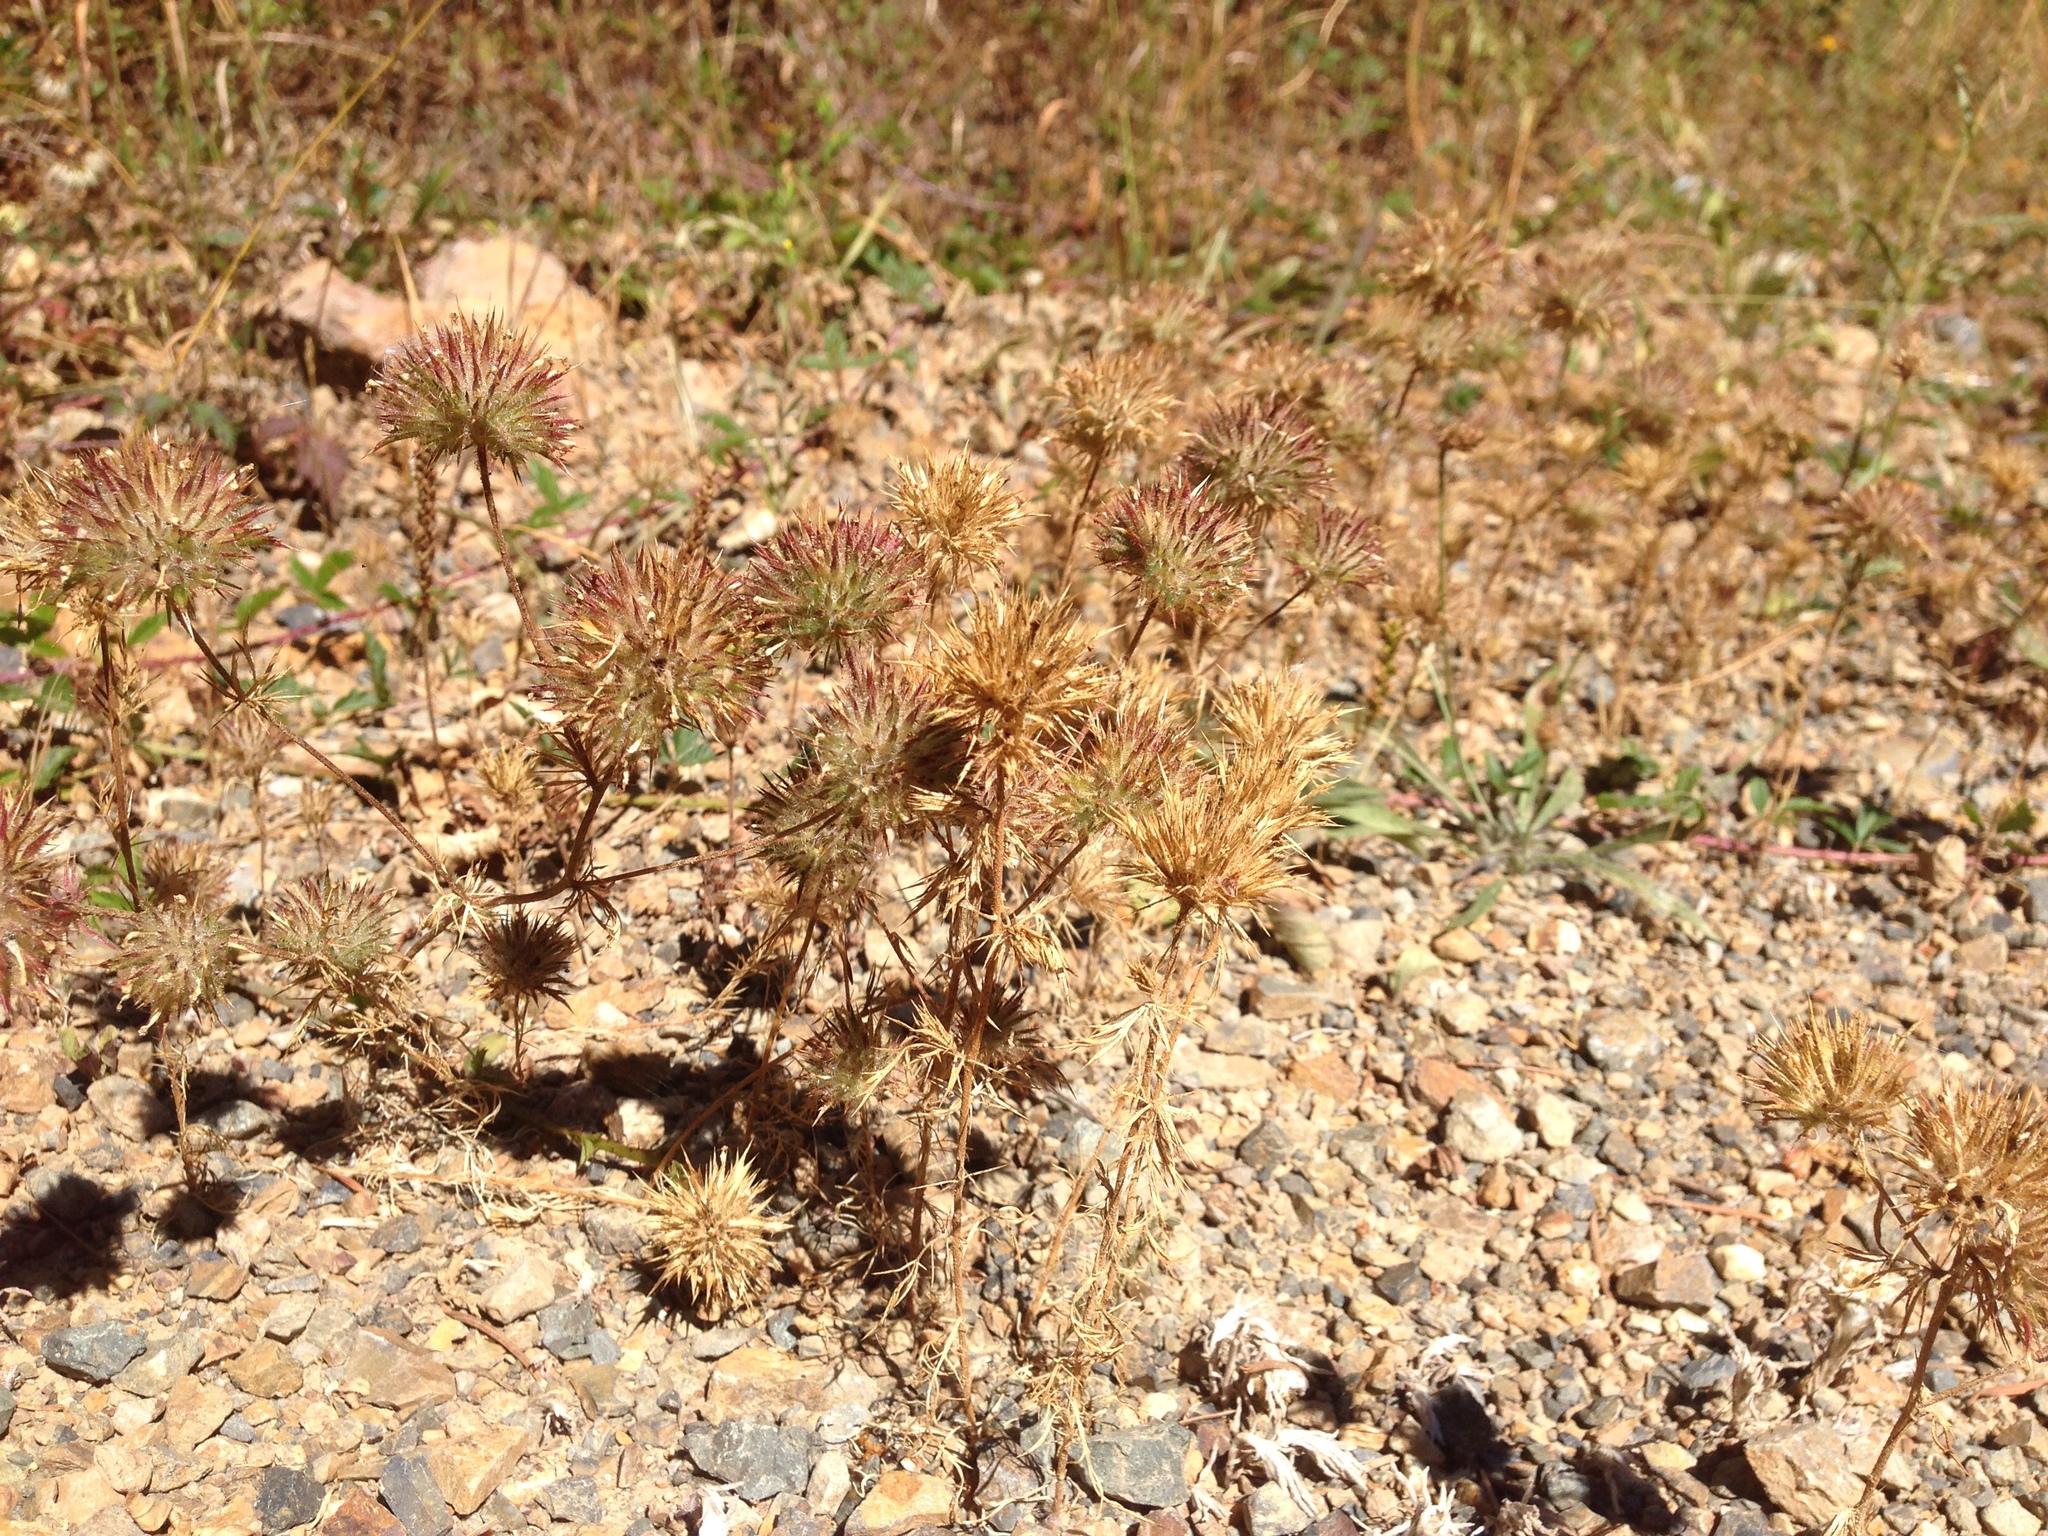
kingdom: Plantae
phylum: Tracheophyta
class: Magnoliopsida
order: Ericales
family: Polemoniaceae
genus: Navarretia
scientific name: Navarretia squarrosa
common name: Skunkweed
